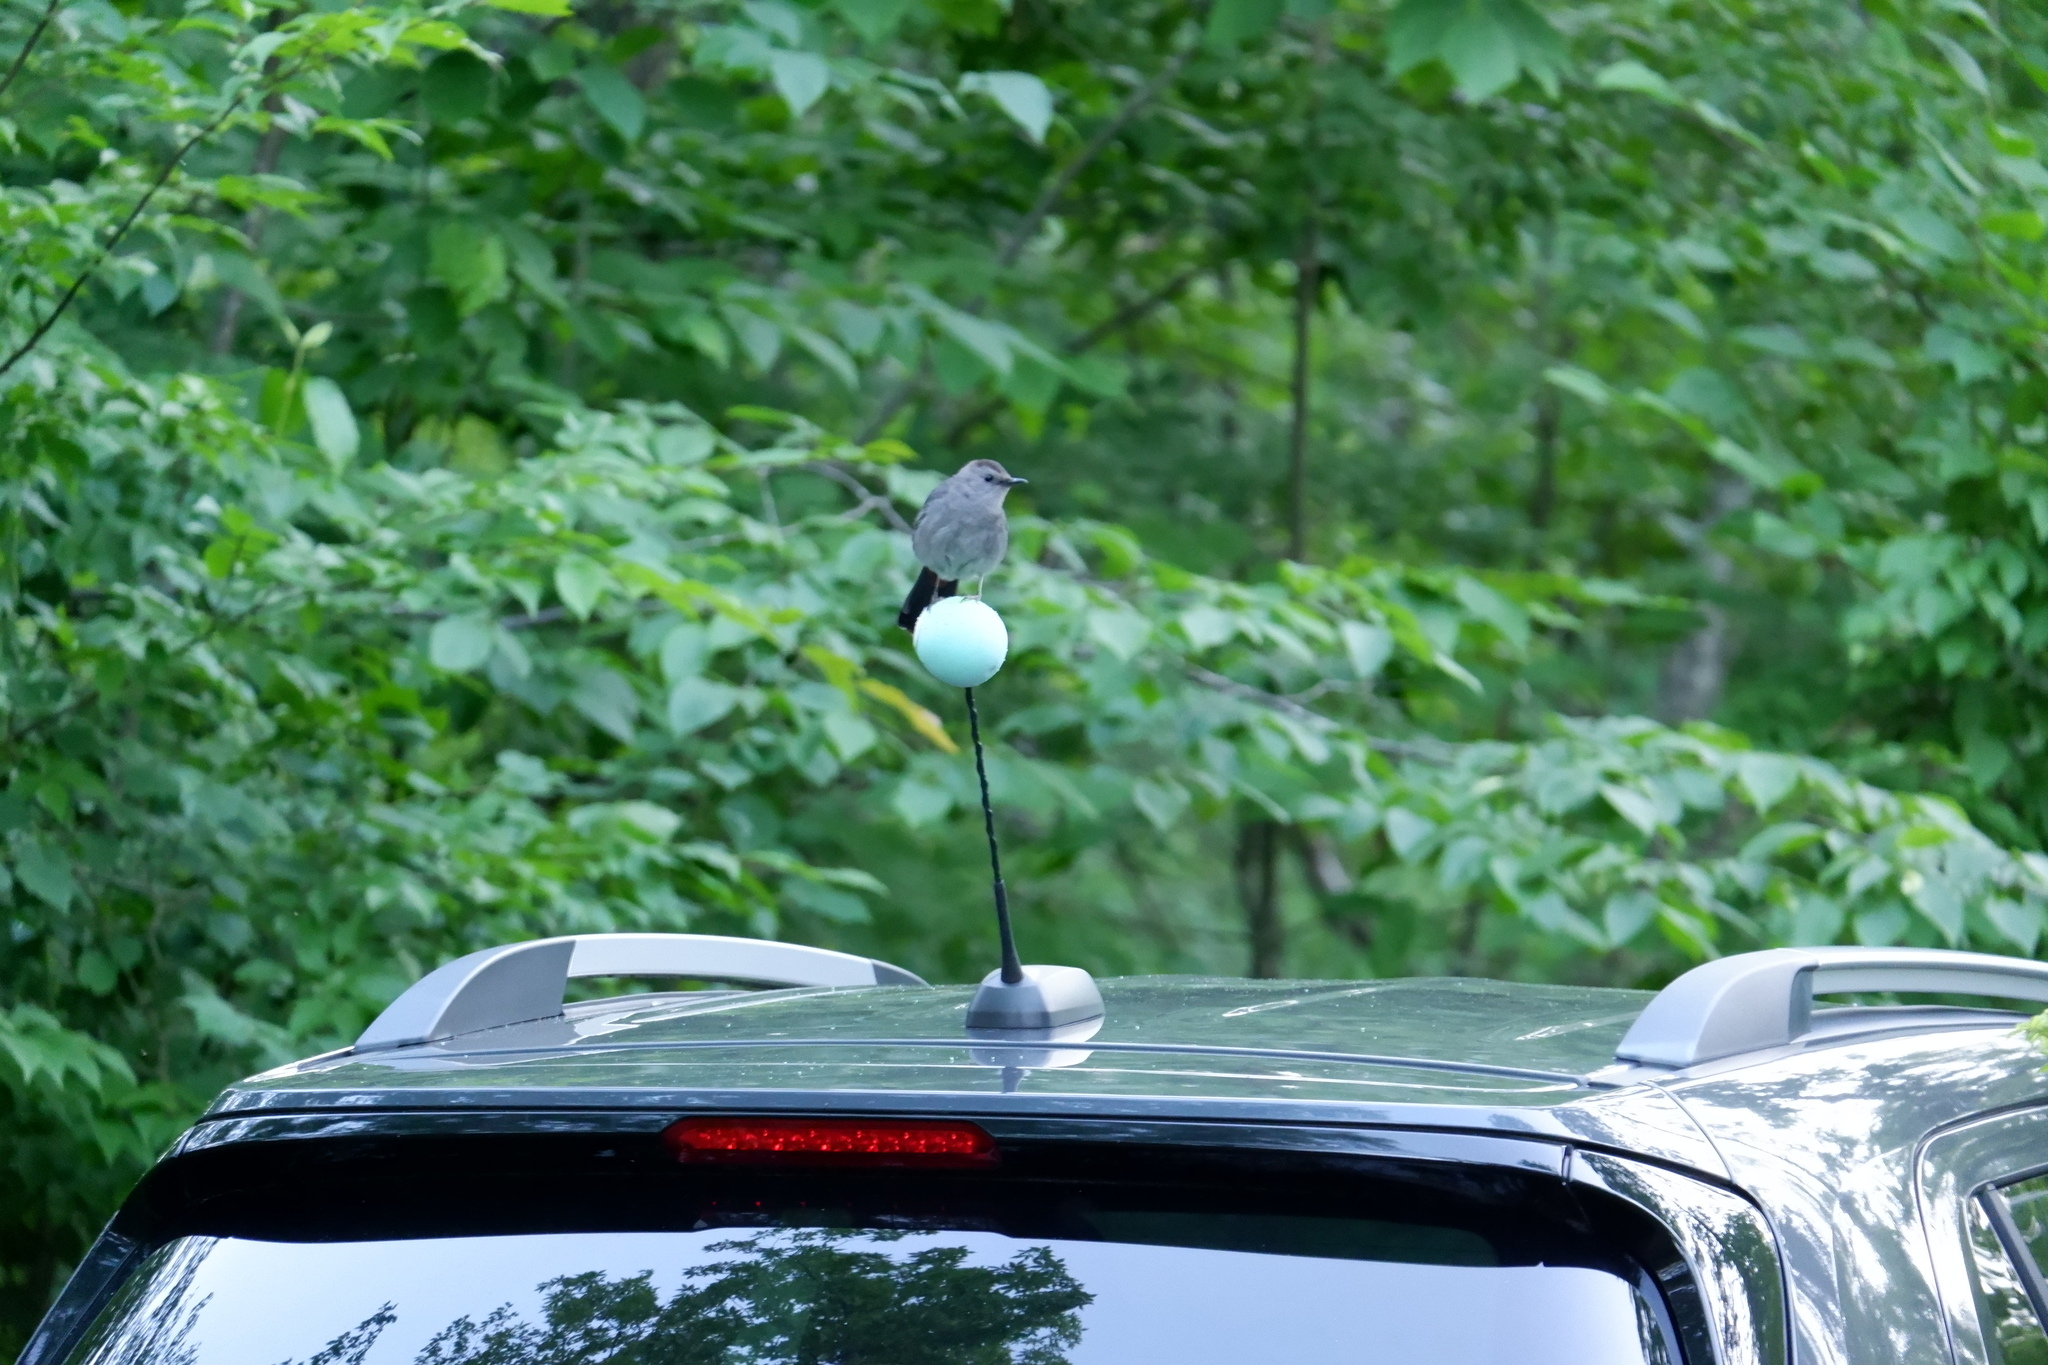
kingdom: Animalia
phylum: Chordata
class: Aves
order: Passeriformes
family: Mimidae
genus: Dumetella
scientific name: Dumetella carolinensis
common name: Gray catbird
